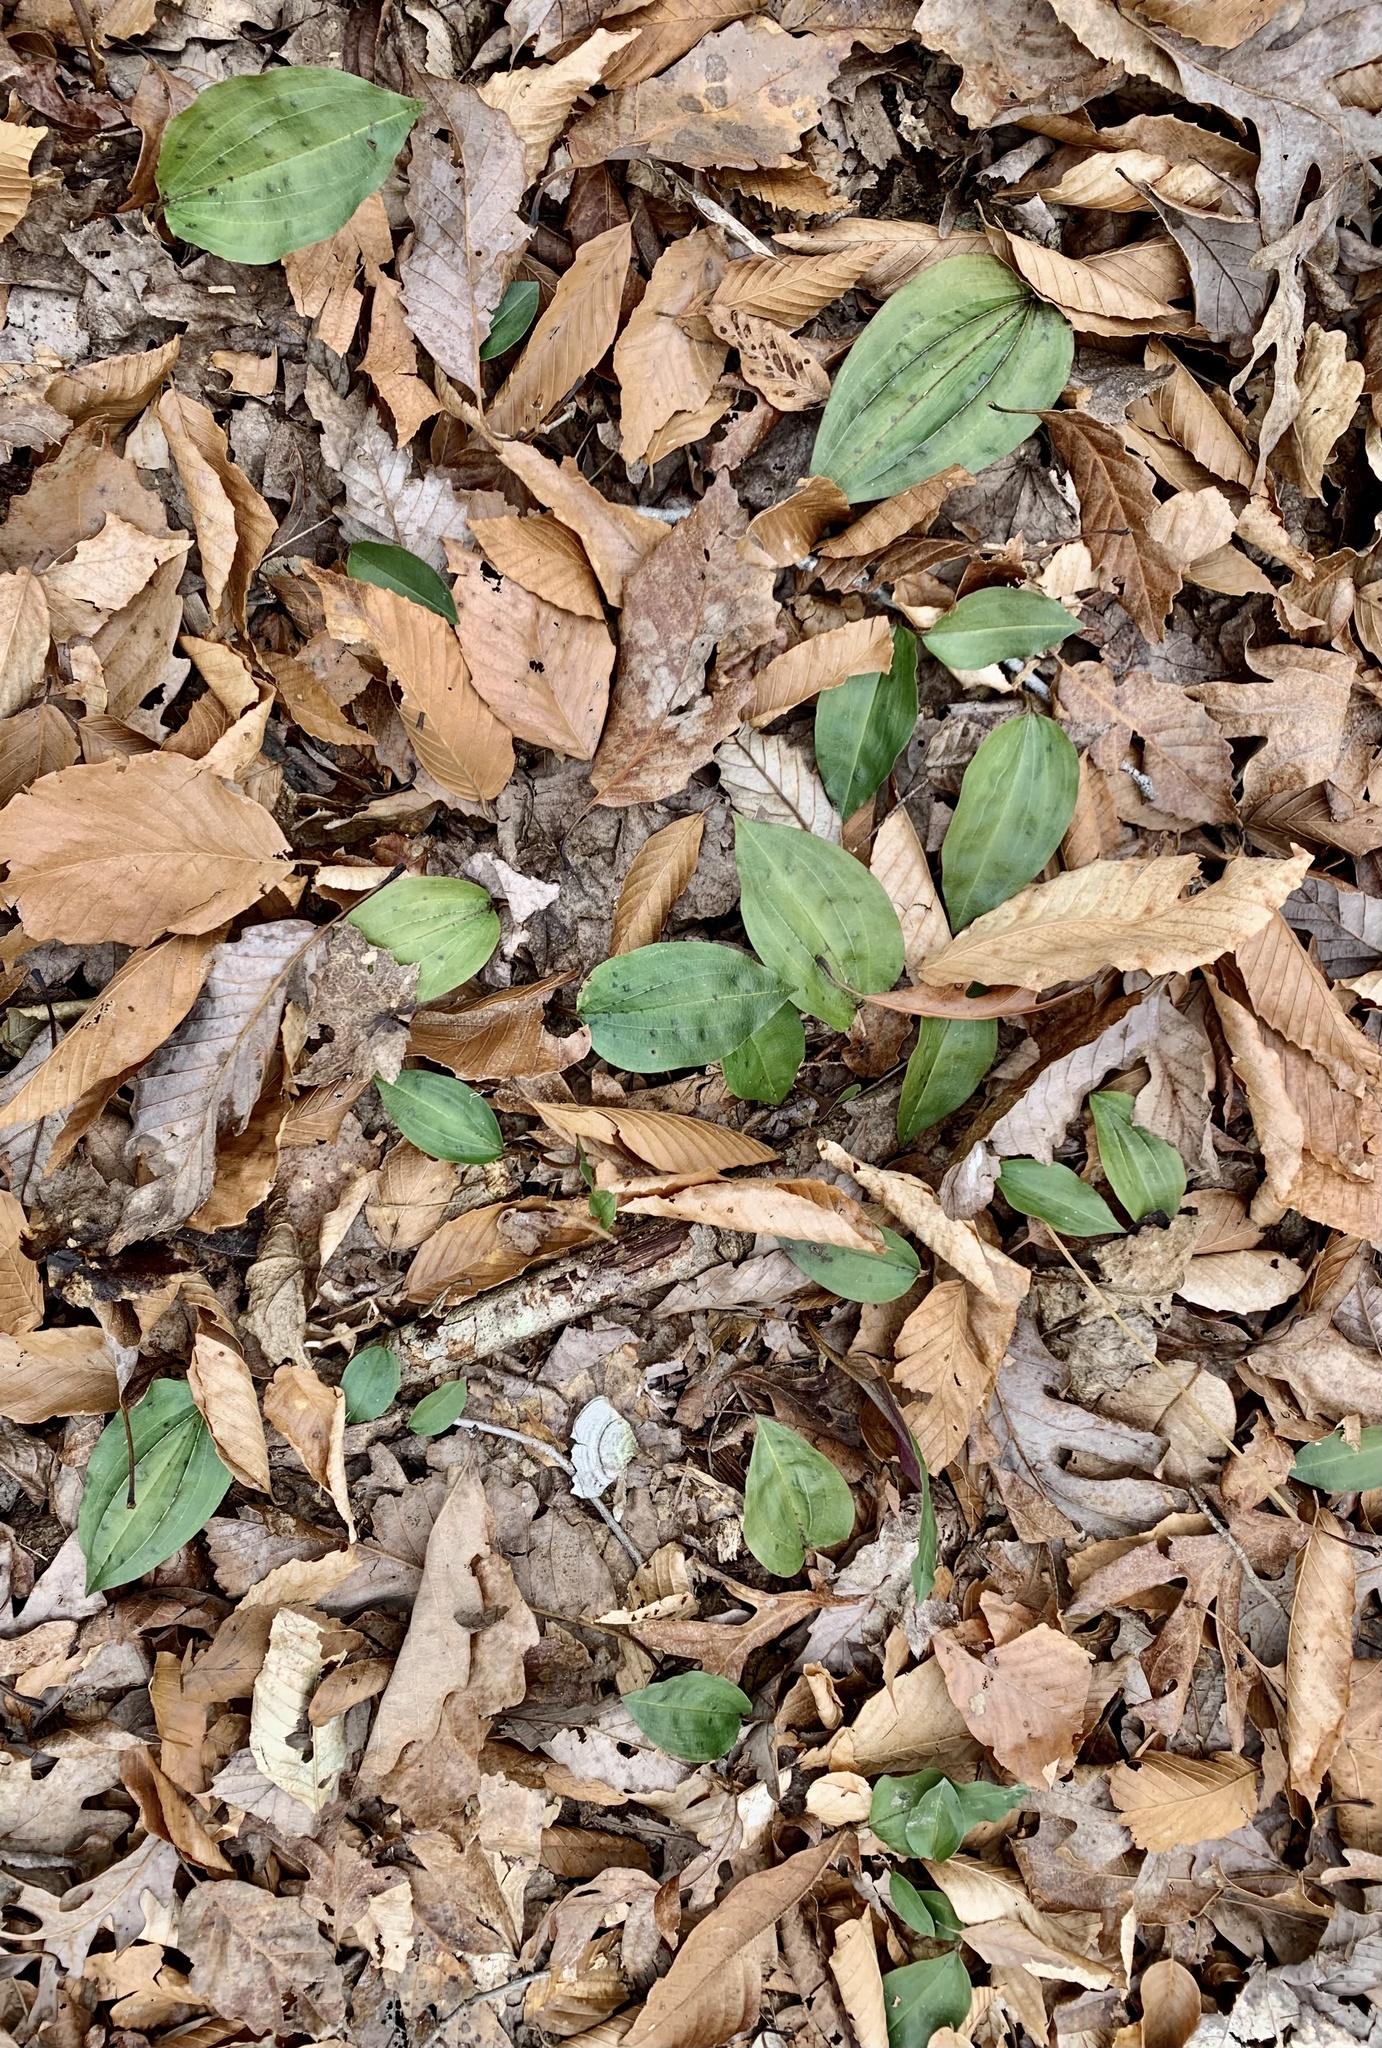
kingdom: Plantae
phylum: Tracheophyta
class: Liliopsida
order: Asparagales
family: Orchidaceae
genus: Tipularia
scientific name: Tipularia discolor
